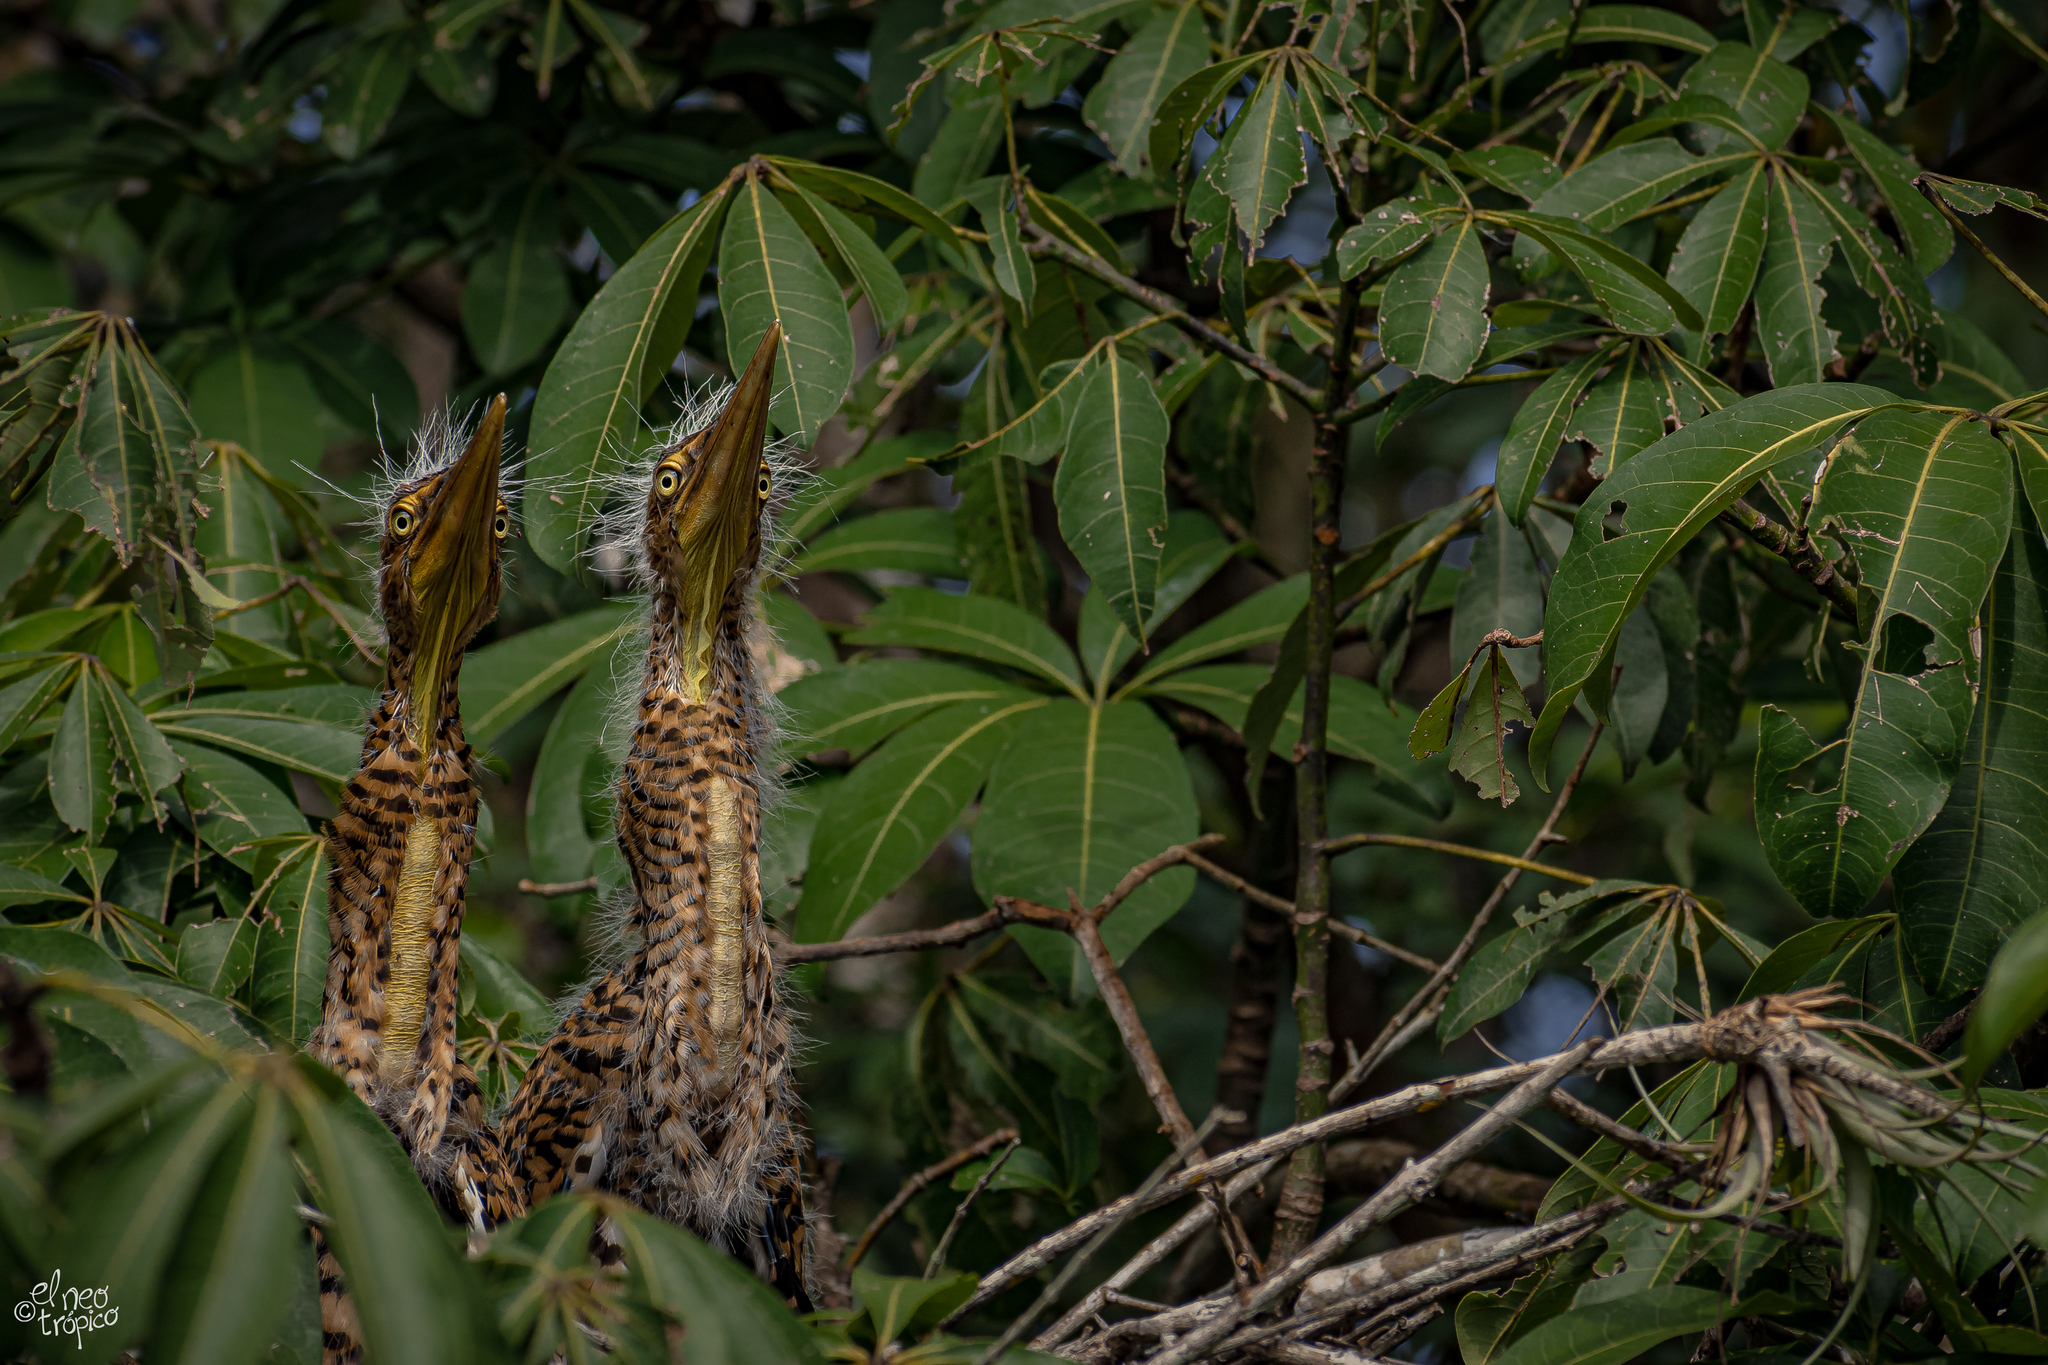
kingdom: Animalia
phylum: Chordata
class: Aves
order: Pelecaniformes
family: Ardeidae
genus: Tigrisoma
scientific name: Tigrisoma mexicanum
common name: Bare-throated tiger-heron
